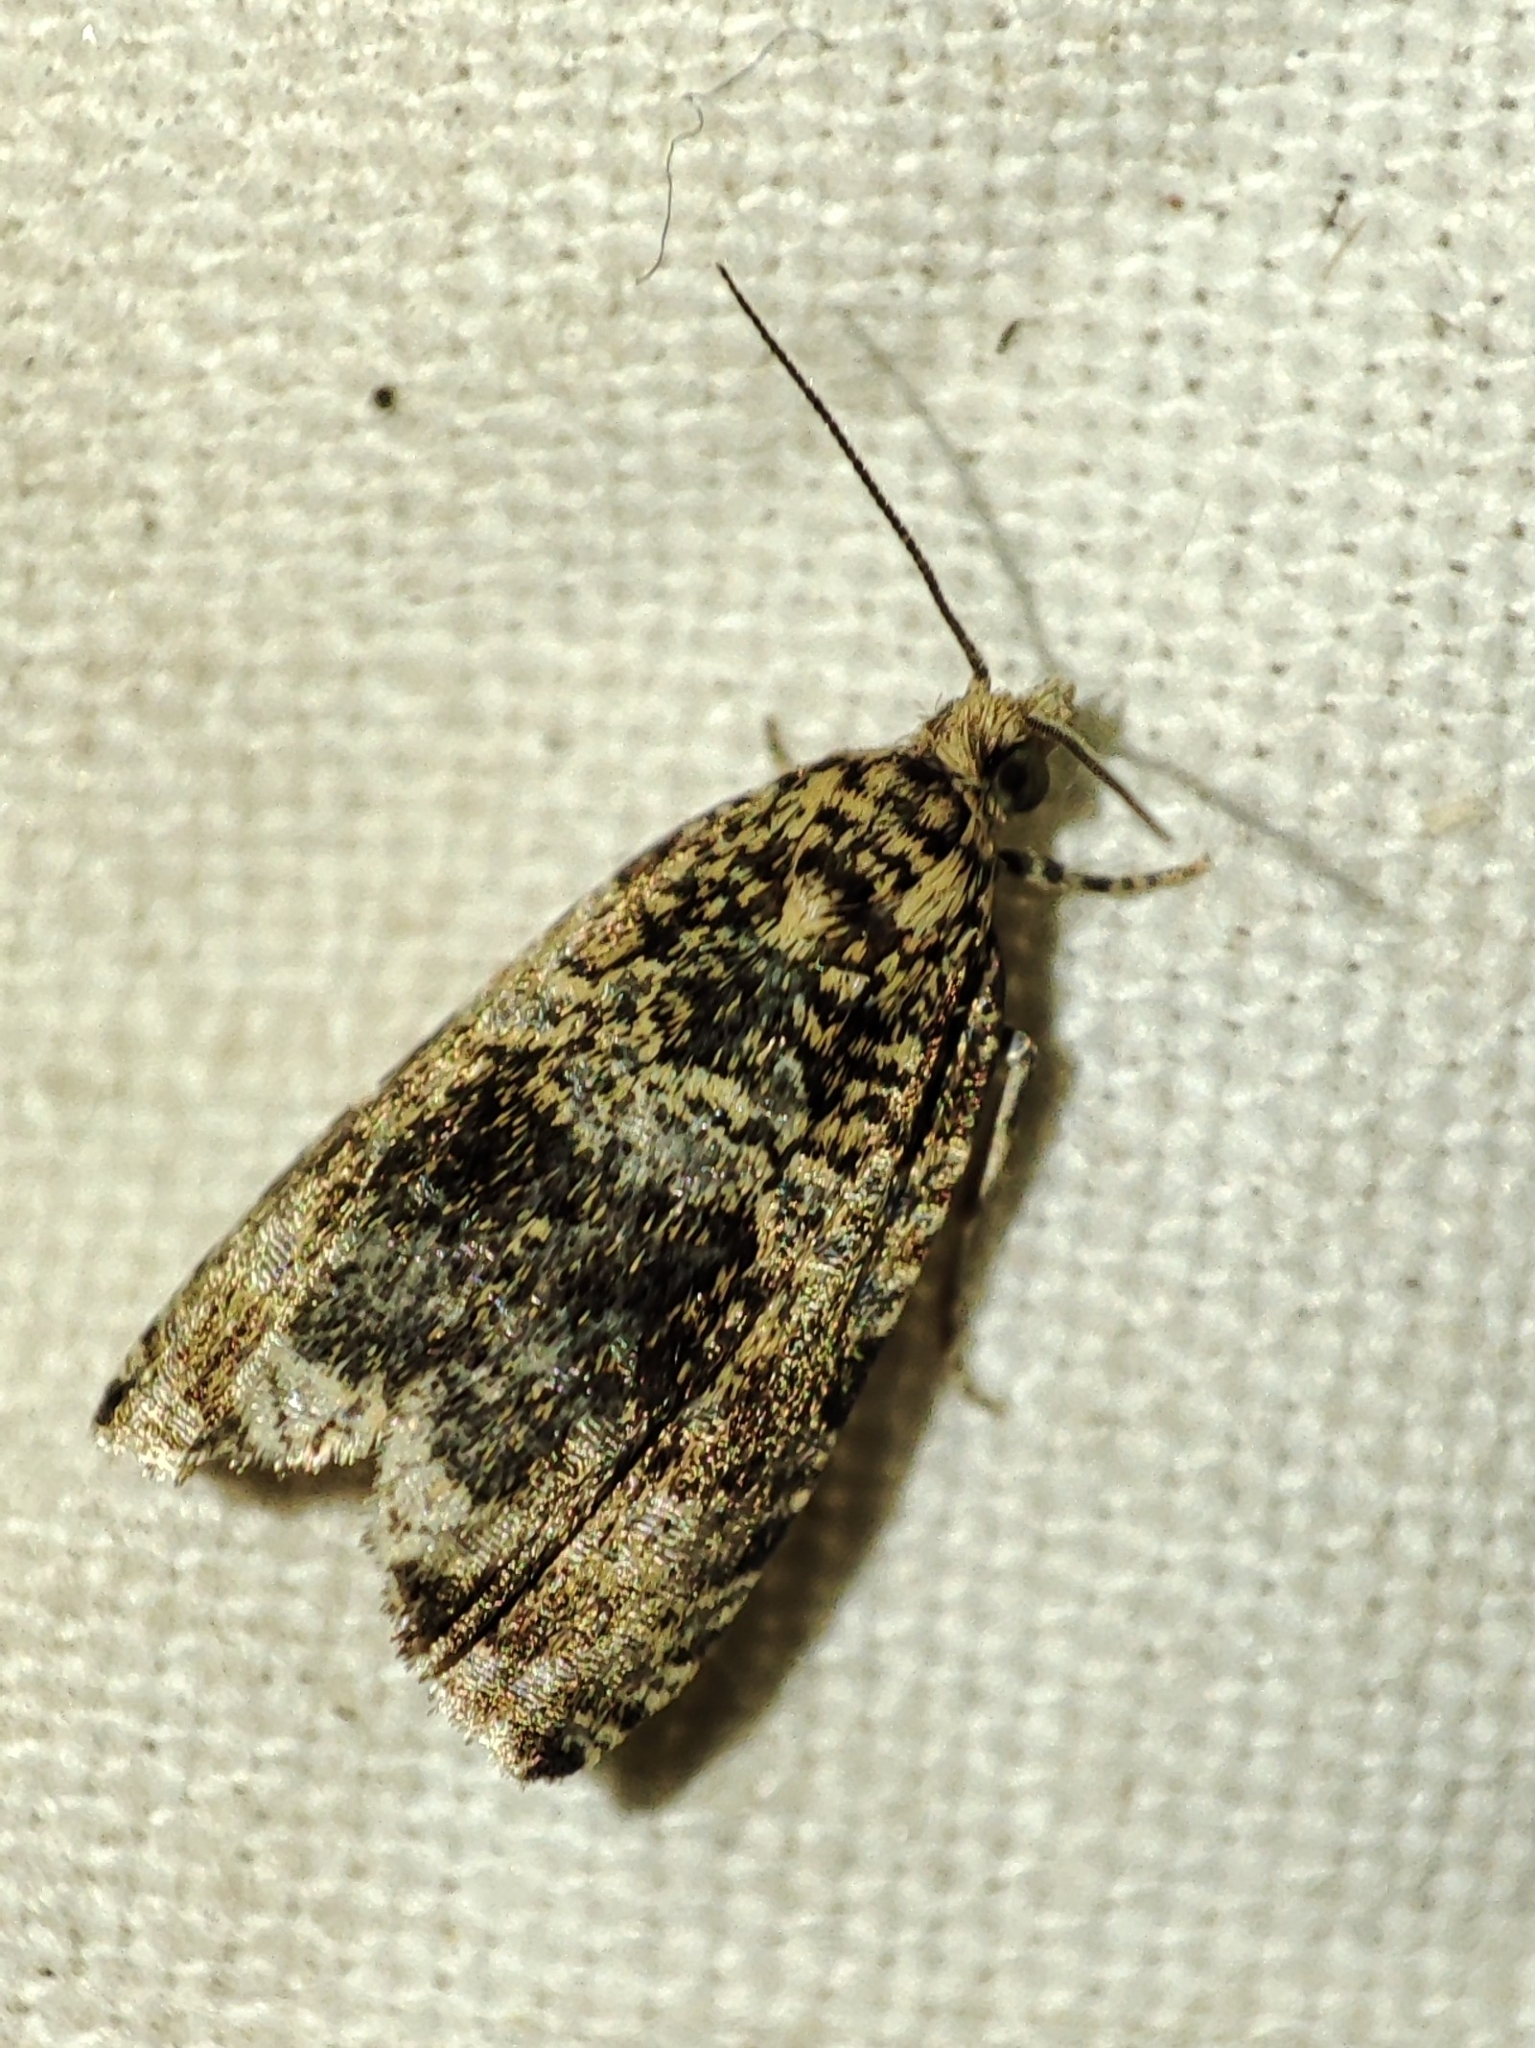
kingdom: Animalia
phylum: Arthropoda
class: Insecta
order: Lepidoptera
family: Tortricidae
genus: Syricoris
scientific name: Syricoris lacunana
